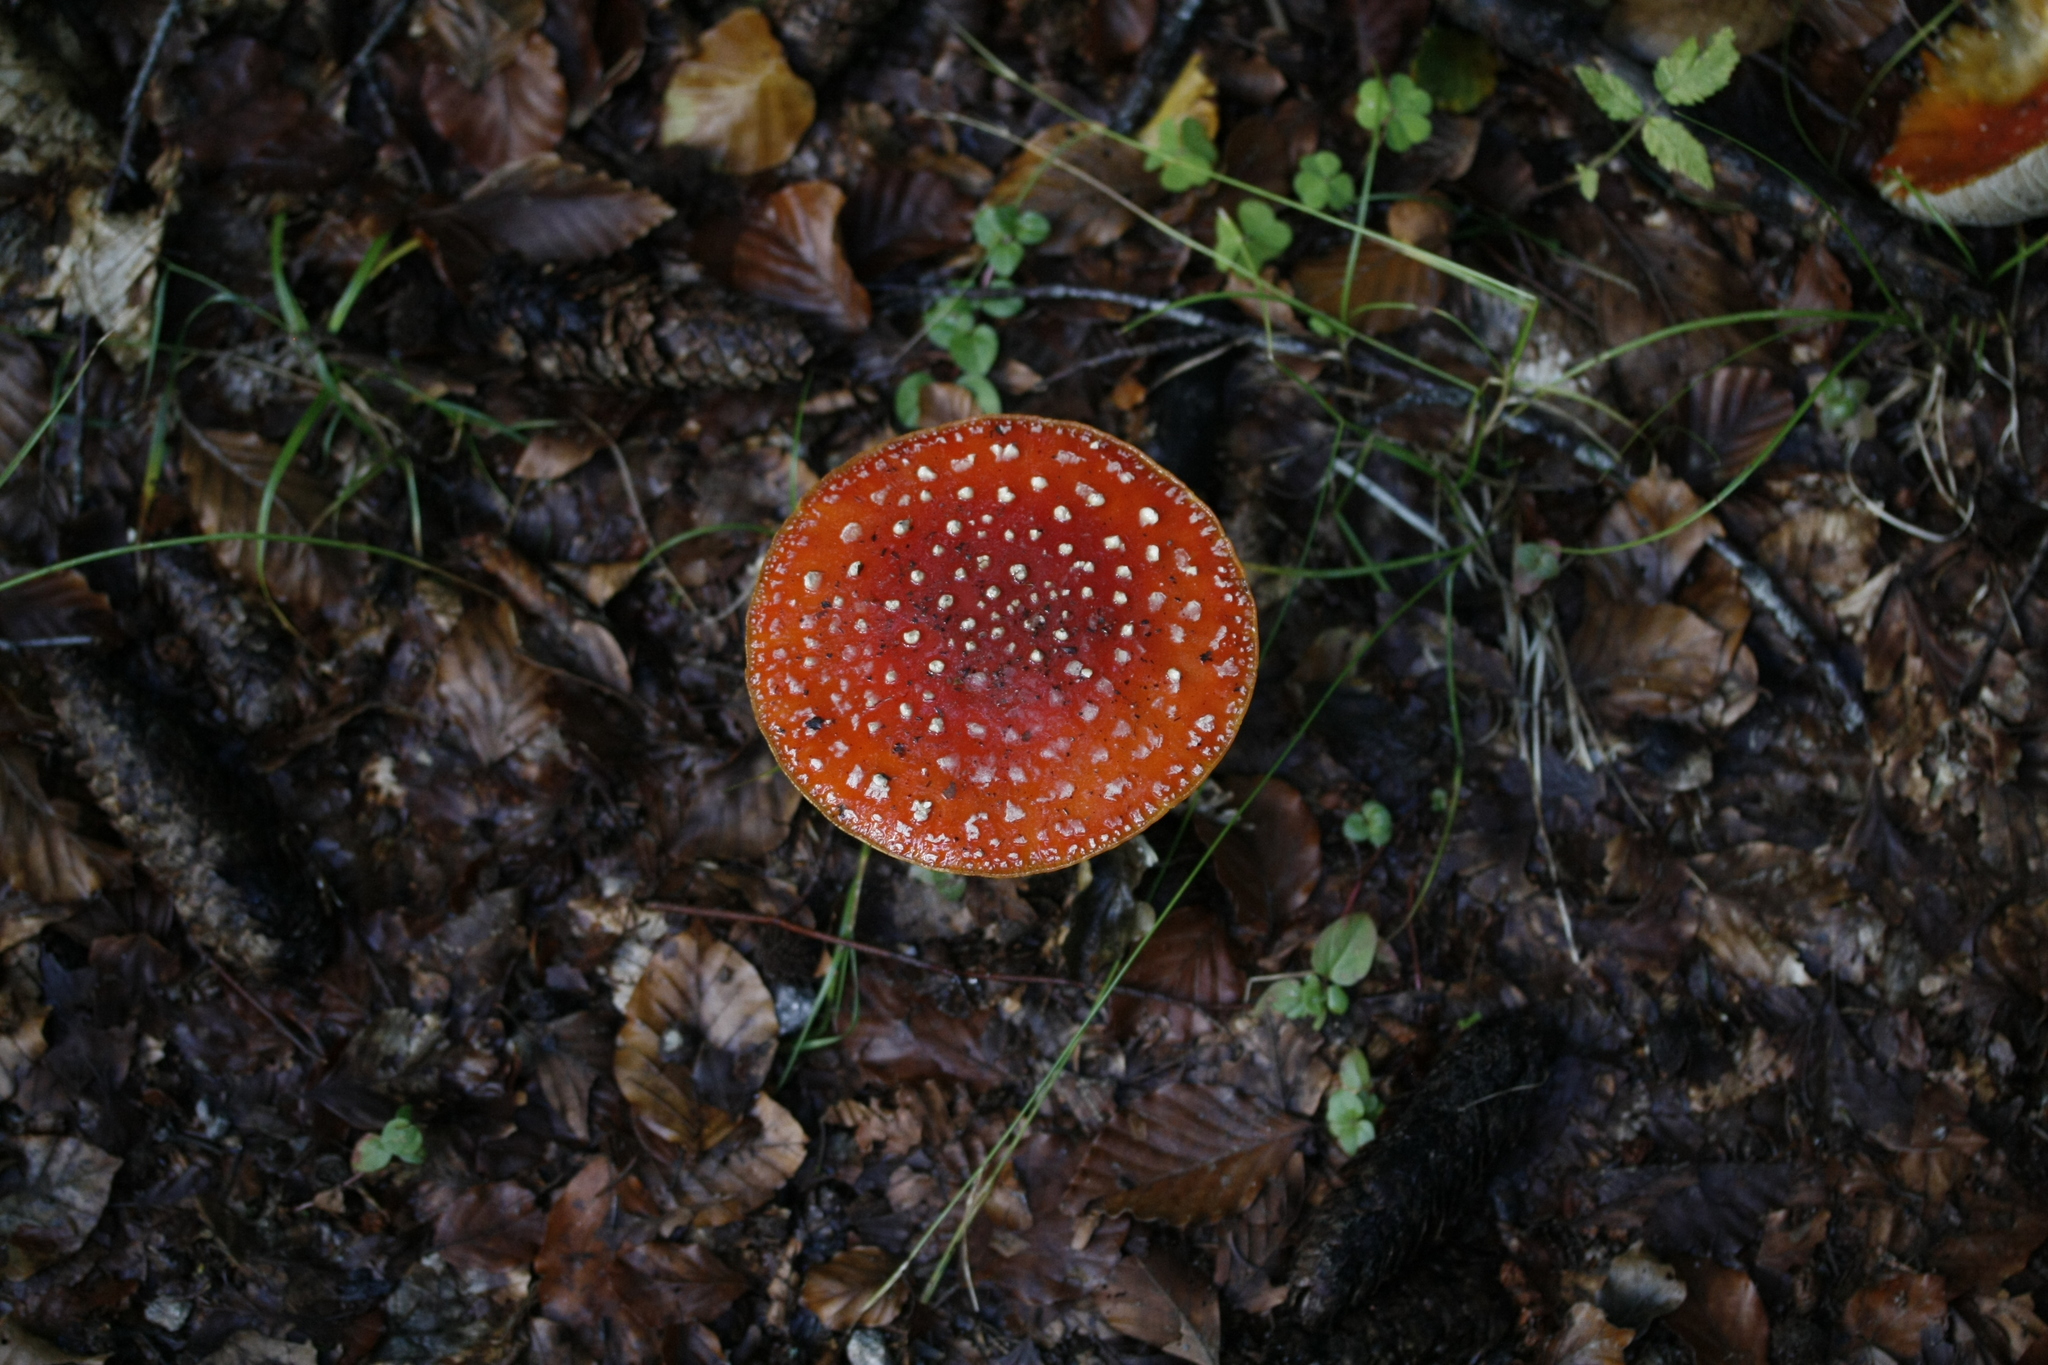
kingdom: Fungi
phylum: Basidiomycota
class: Agaricomycetes
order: Agaricales
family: Amanitaceae
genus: Amanita
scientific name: Amanita muscaria
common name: Fly agaric
